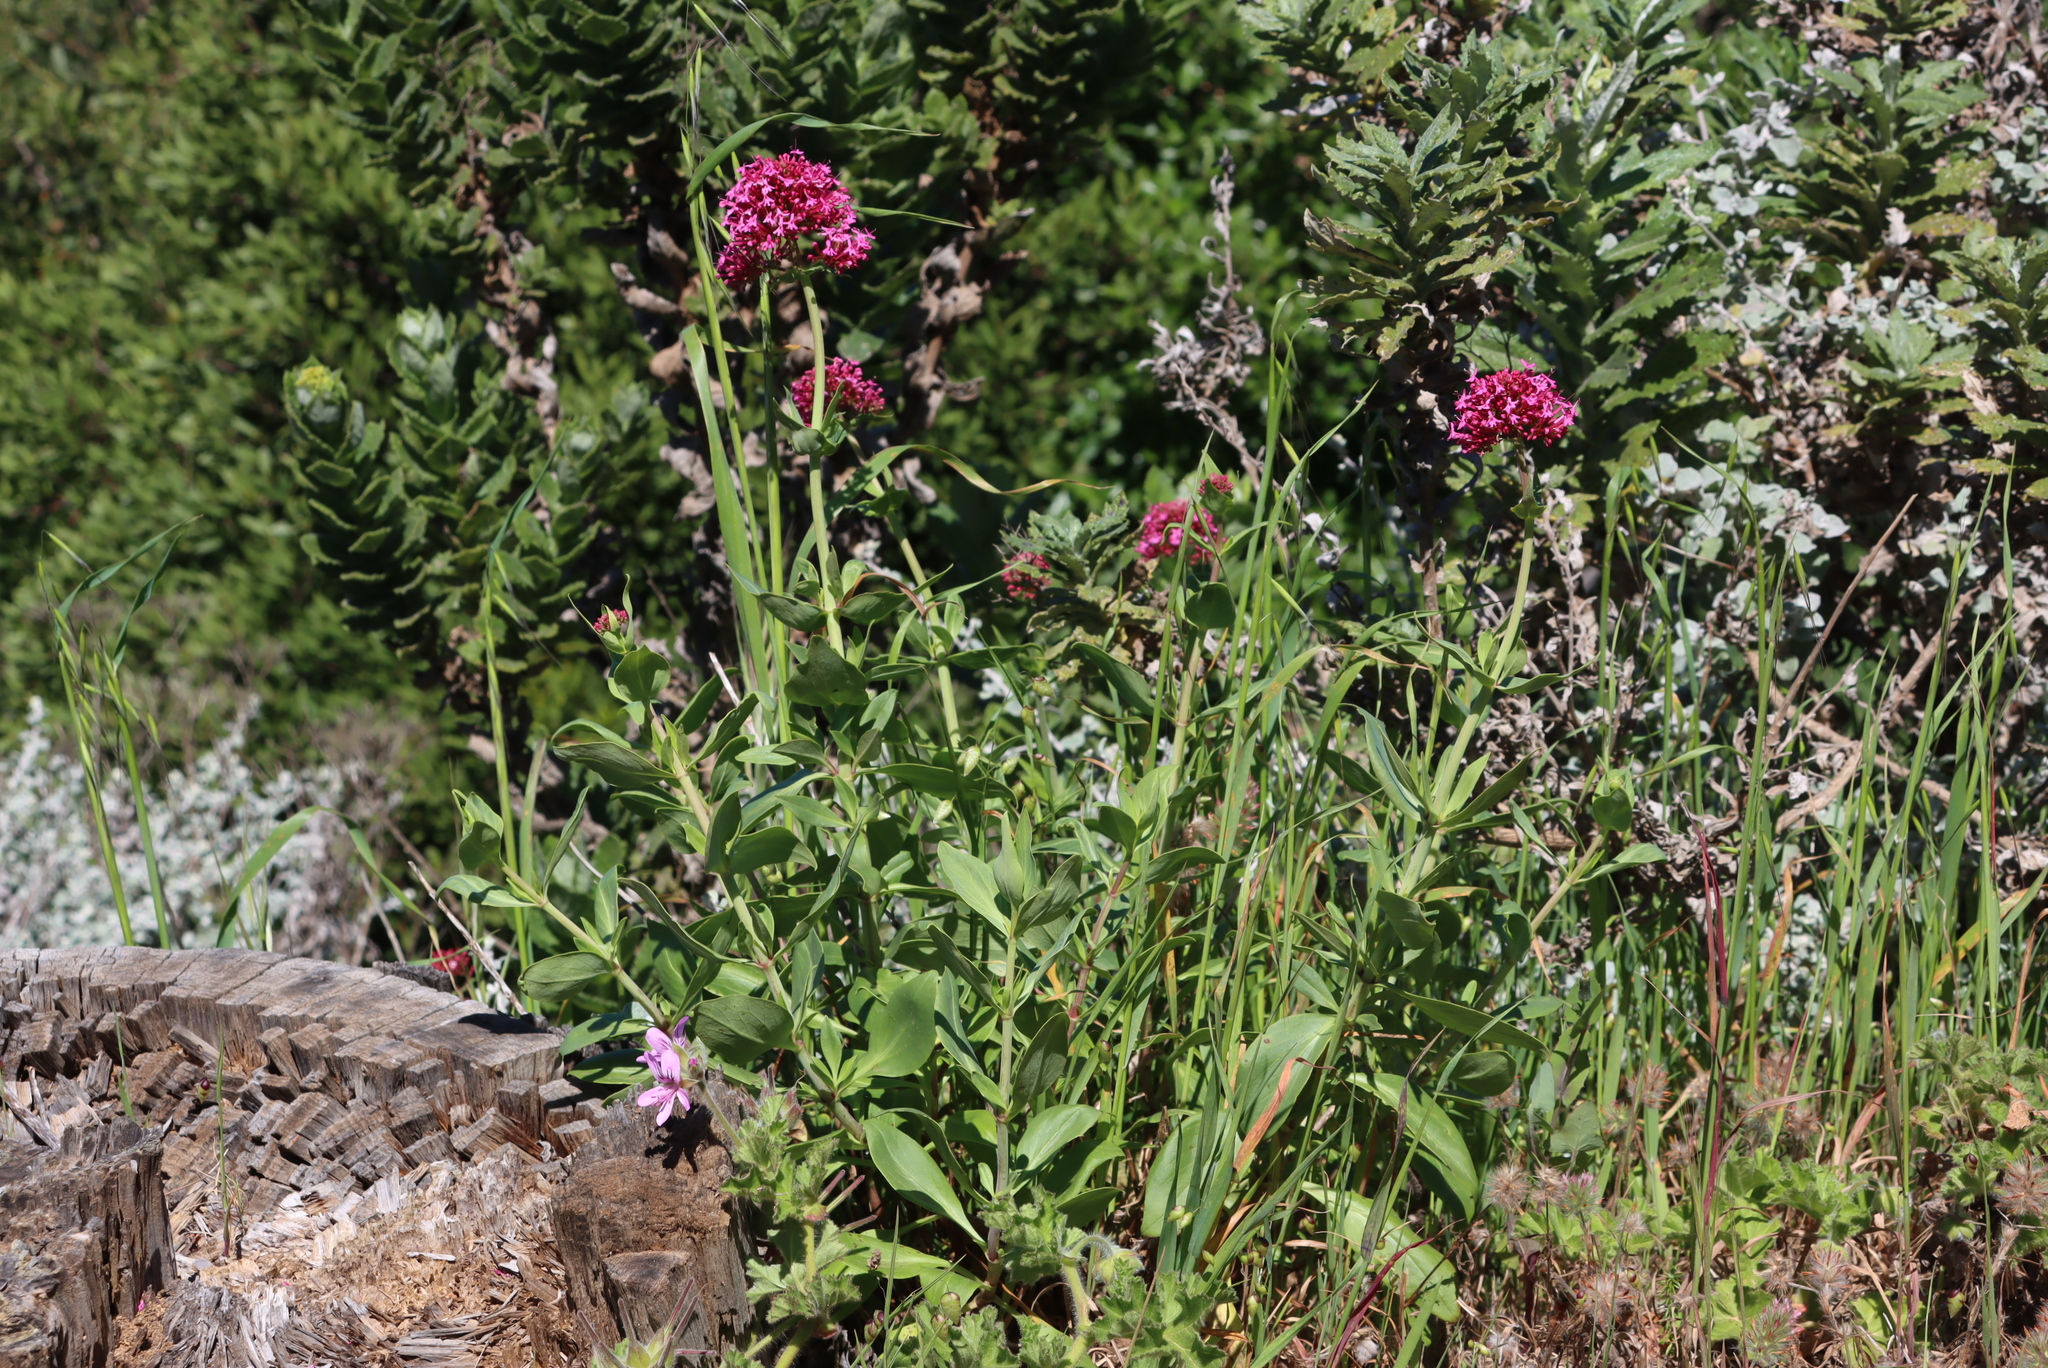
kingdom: Plantae
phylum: Tracheophyta
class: Magnoliopsida
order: Dipsacales
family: Caprifoliaceae
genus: Centranthus
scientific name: Centranthus ruber
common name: Red valerian
